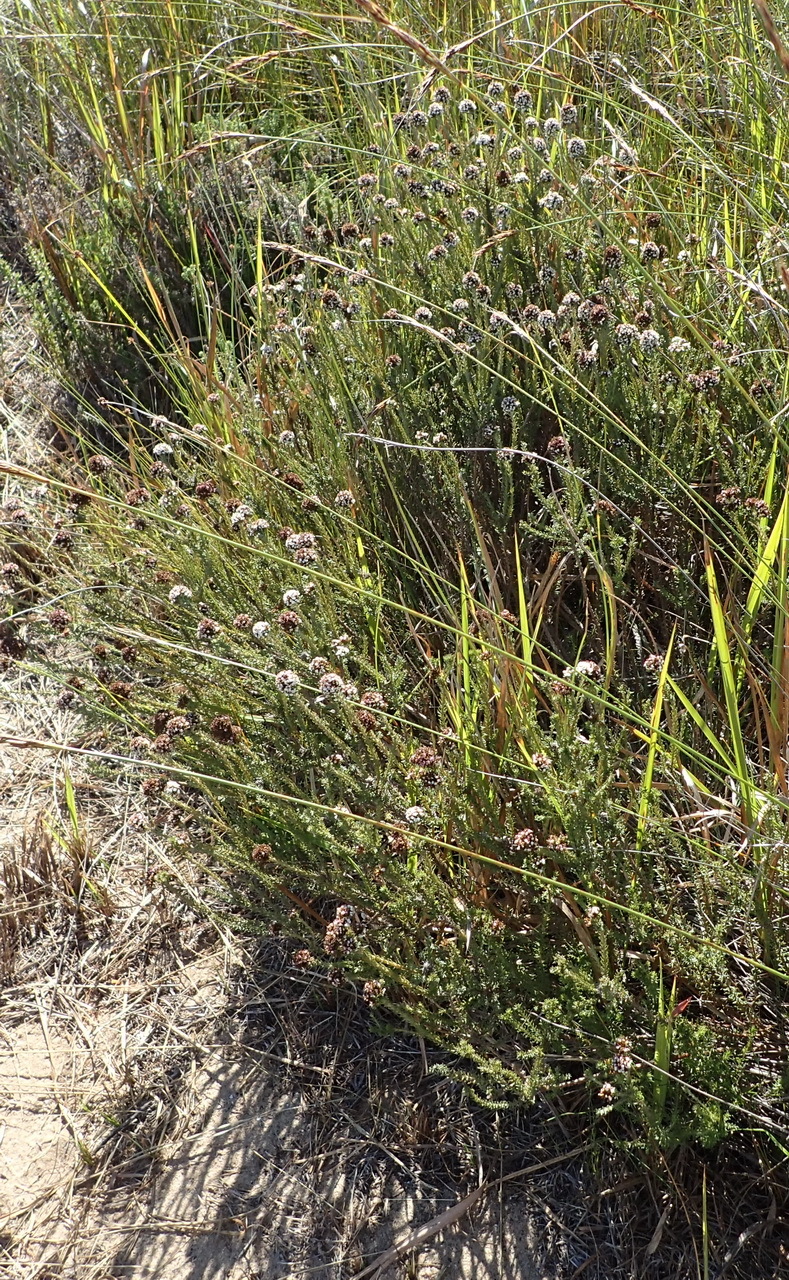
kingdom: Plantae
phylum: Tracheophyta
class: Magnoliopsida
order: Asterales
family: Asteraceae
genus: Disparago
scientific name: Disparago anomala
